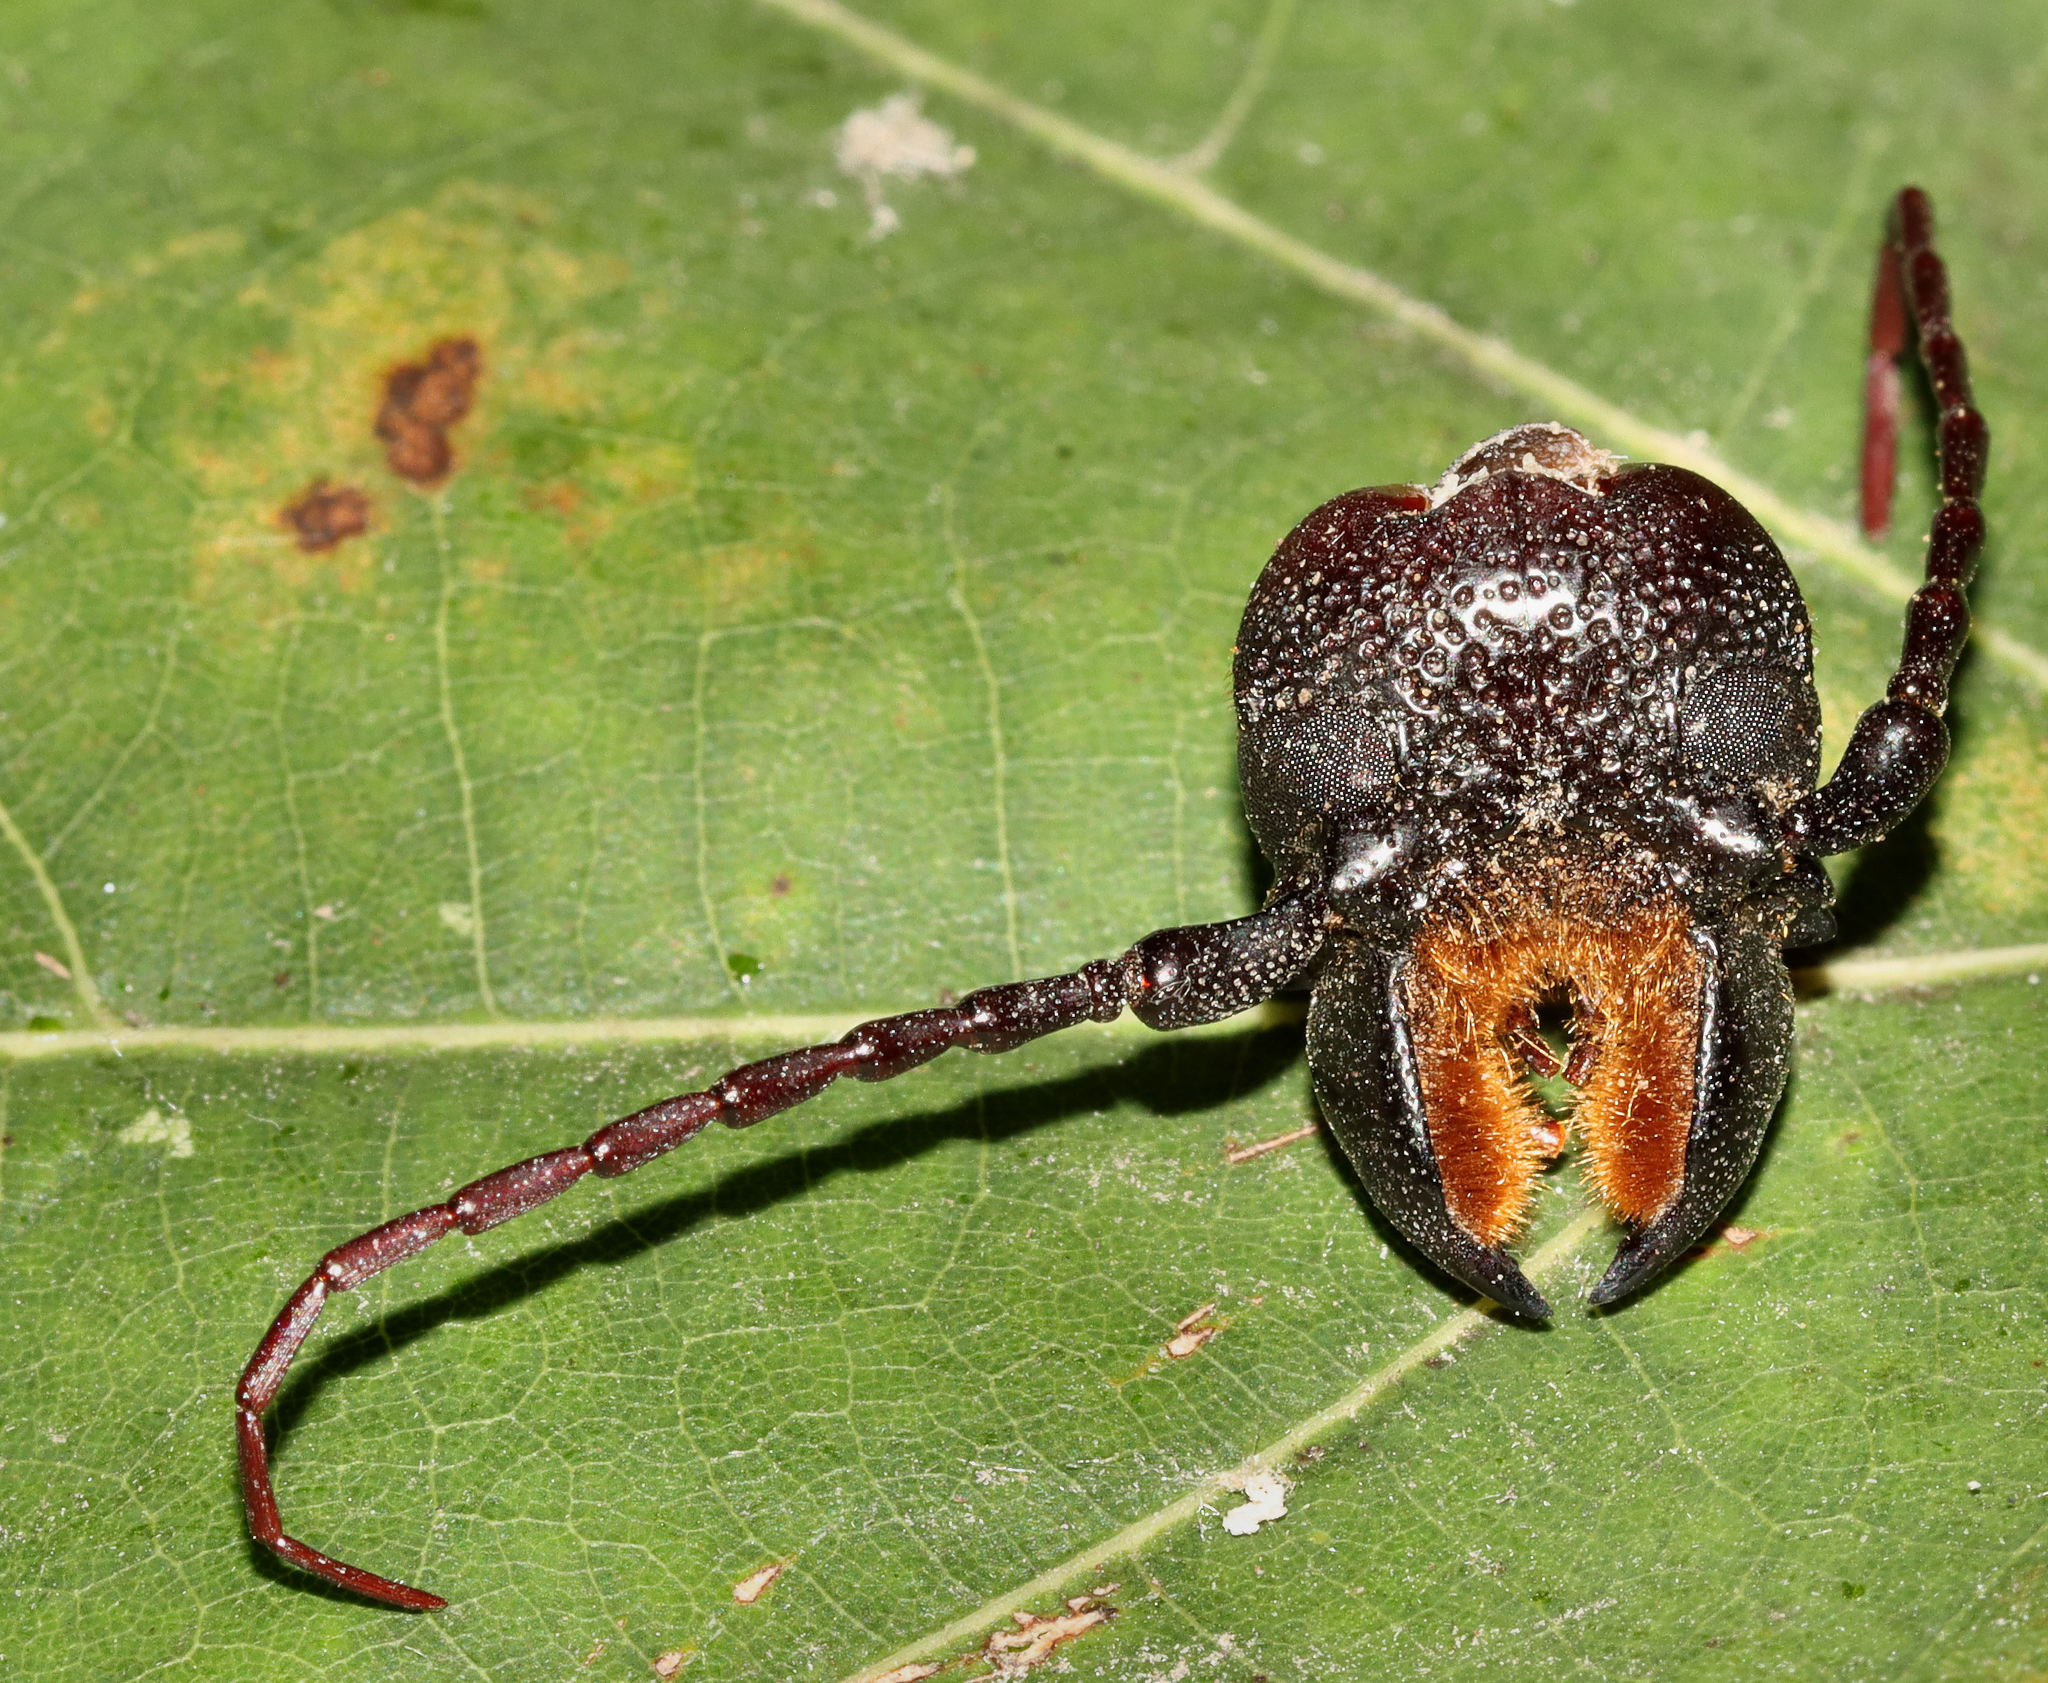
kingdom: Animalia
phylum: Arthropoda
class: Insecta
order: Coleoptera
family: Cerambycidae
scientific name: Cerambycidae
